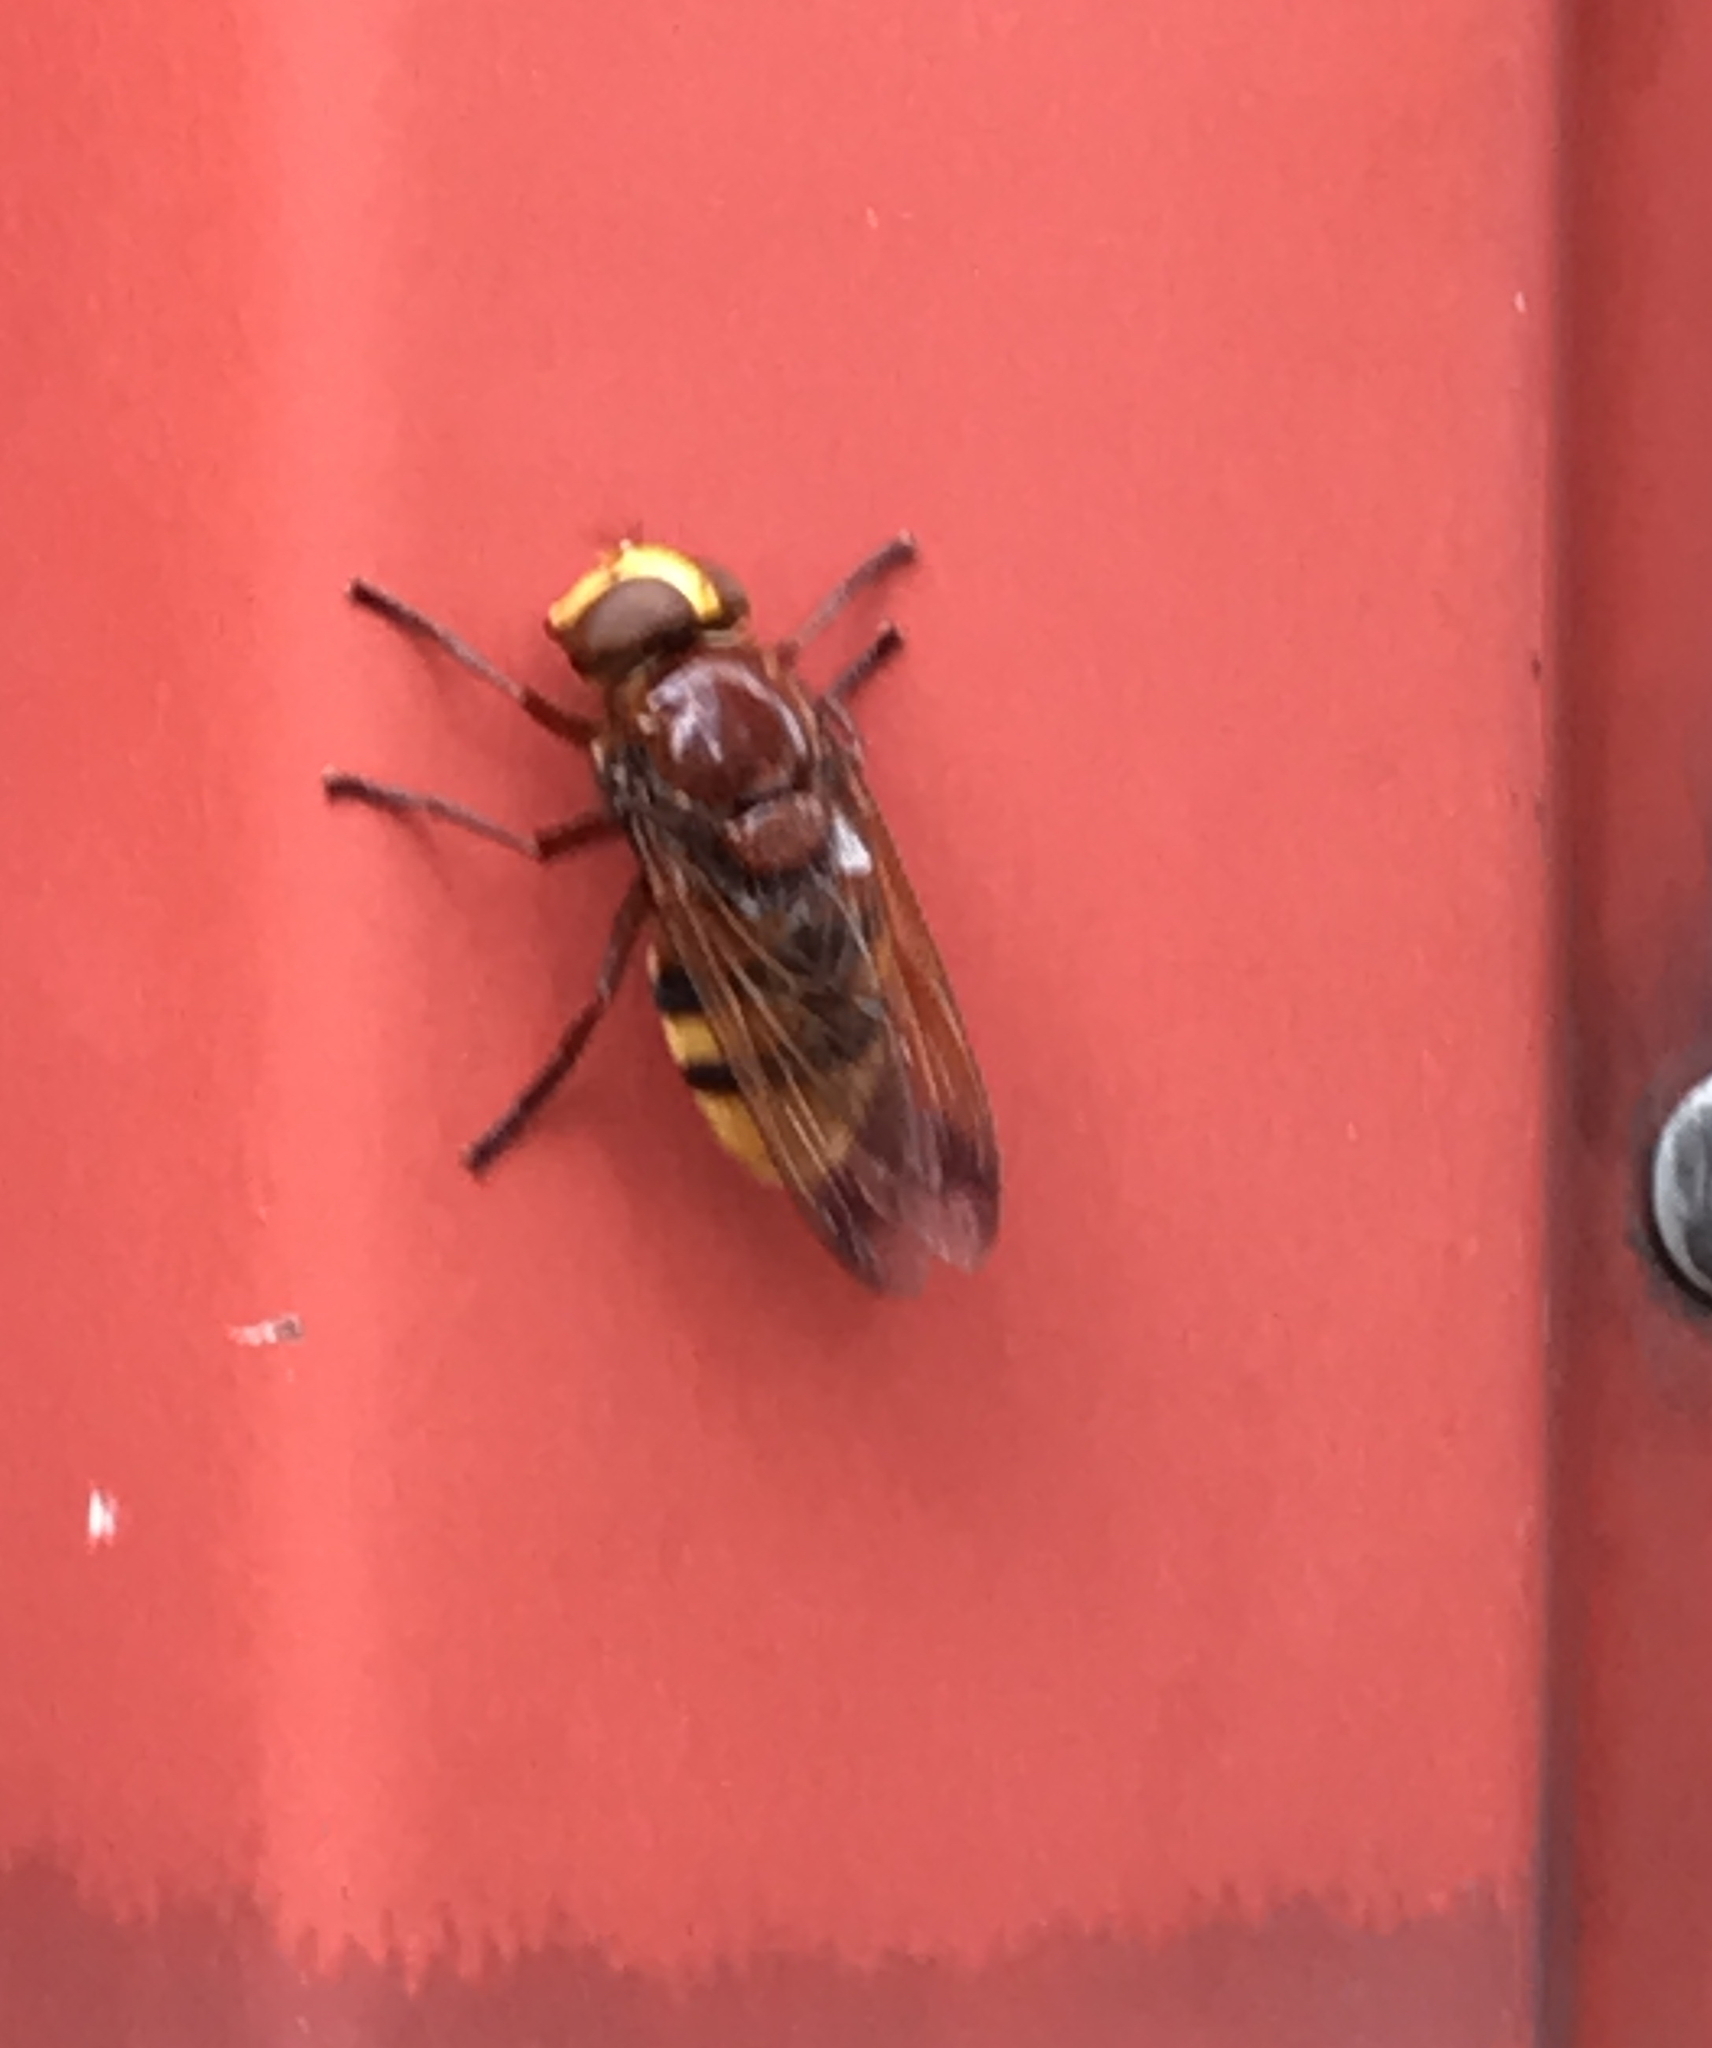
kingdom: Animalia
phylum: Arthropoda
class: Insecta
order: Diptera
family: Syrphidae
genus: Volucella
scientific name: Volucella zonaria
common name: Hornet hoverfly
